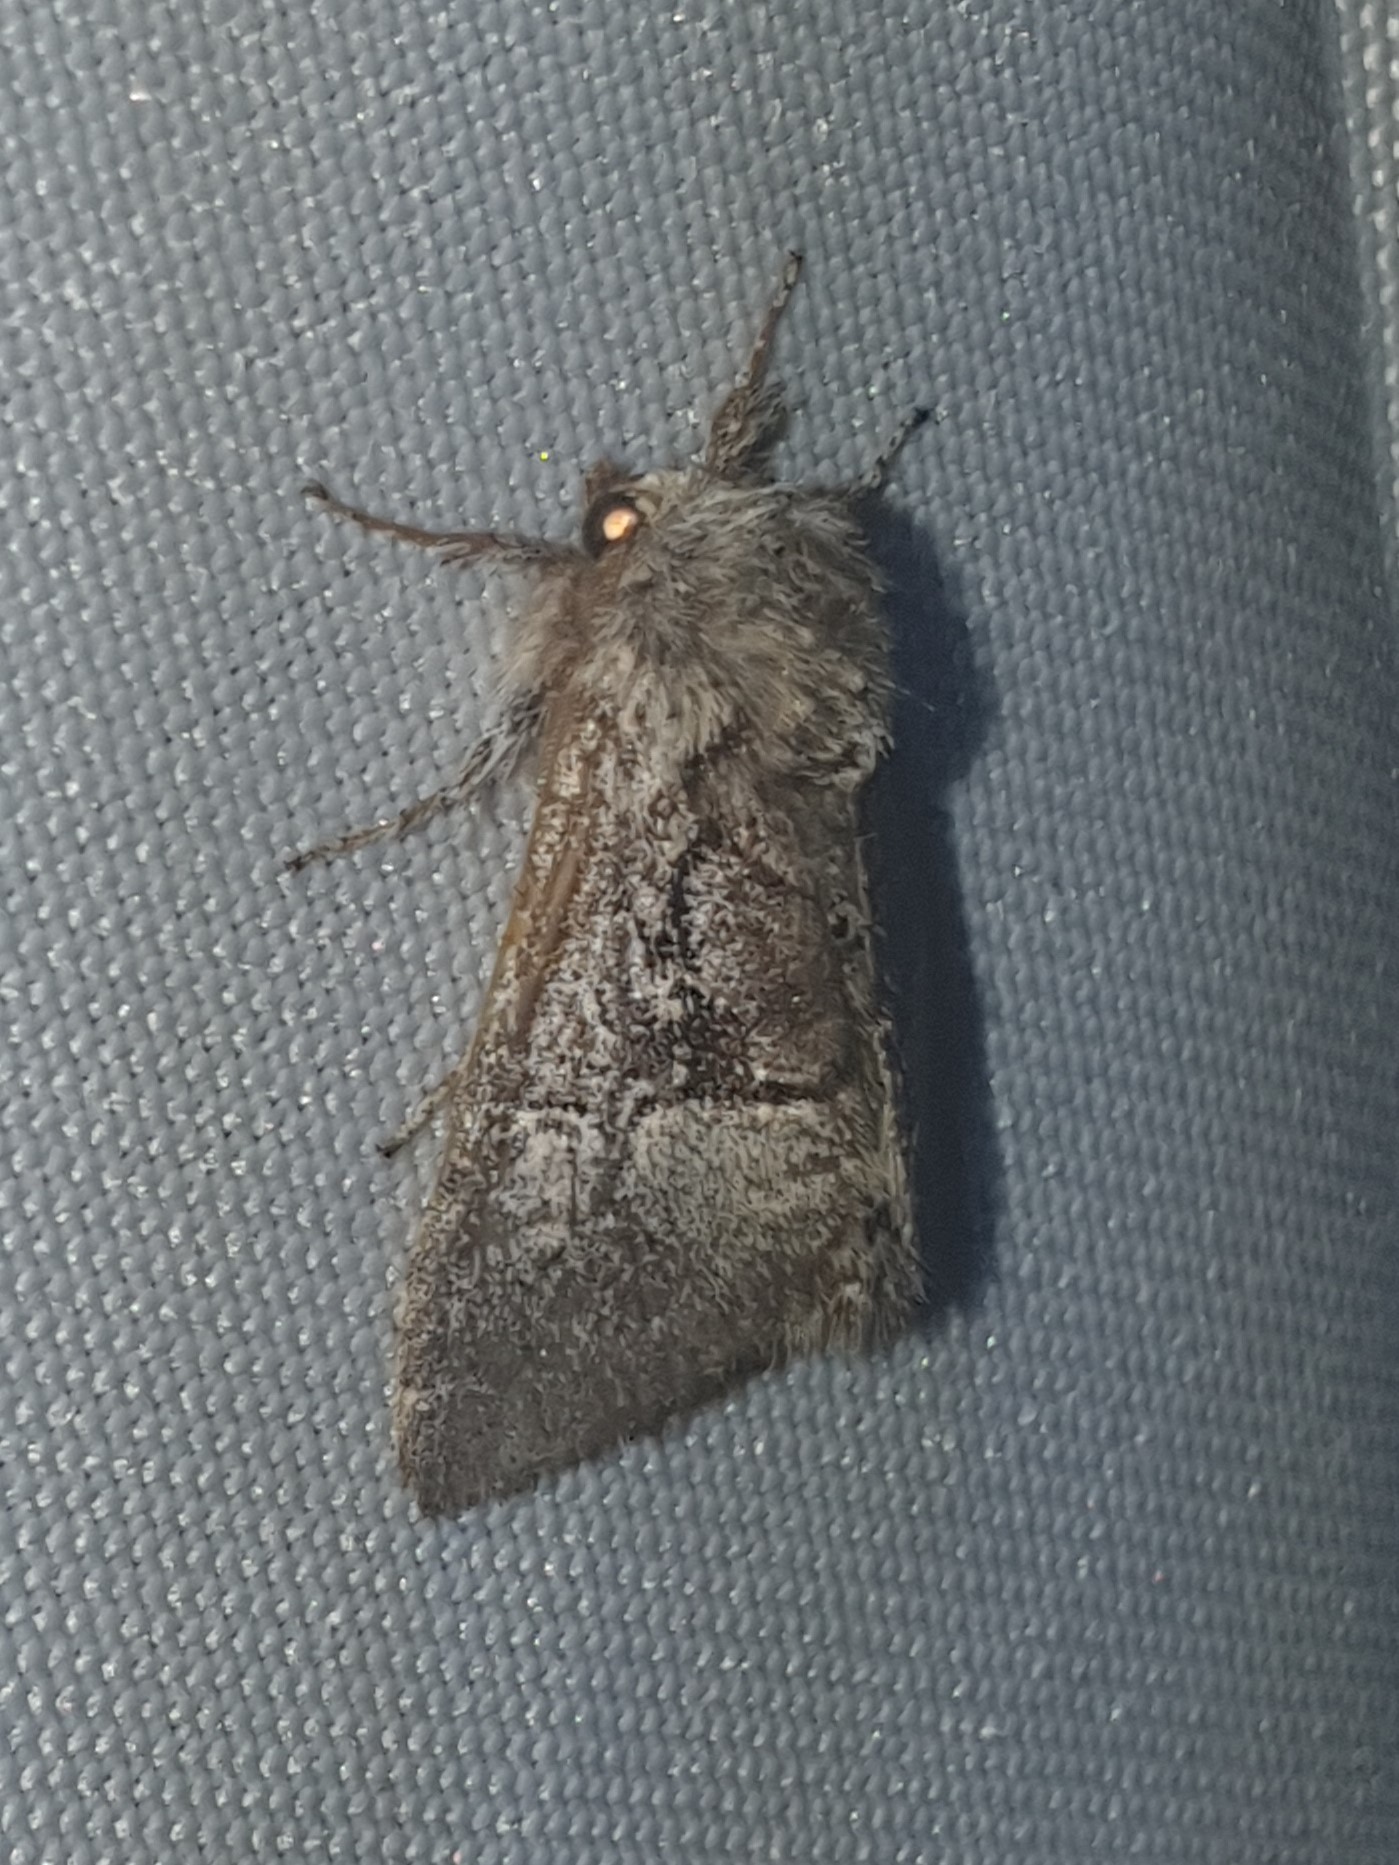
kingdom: Animalia
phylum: Arthropoda
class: Insecta
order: Lepidoptera
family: Noctuidae
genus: Colocasia
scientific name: Colocasia coryli
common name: Nut-tree tussock
